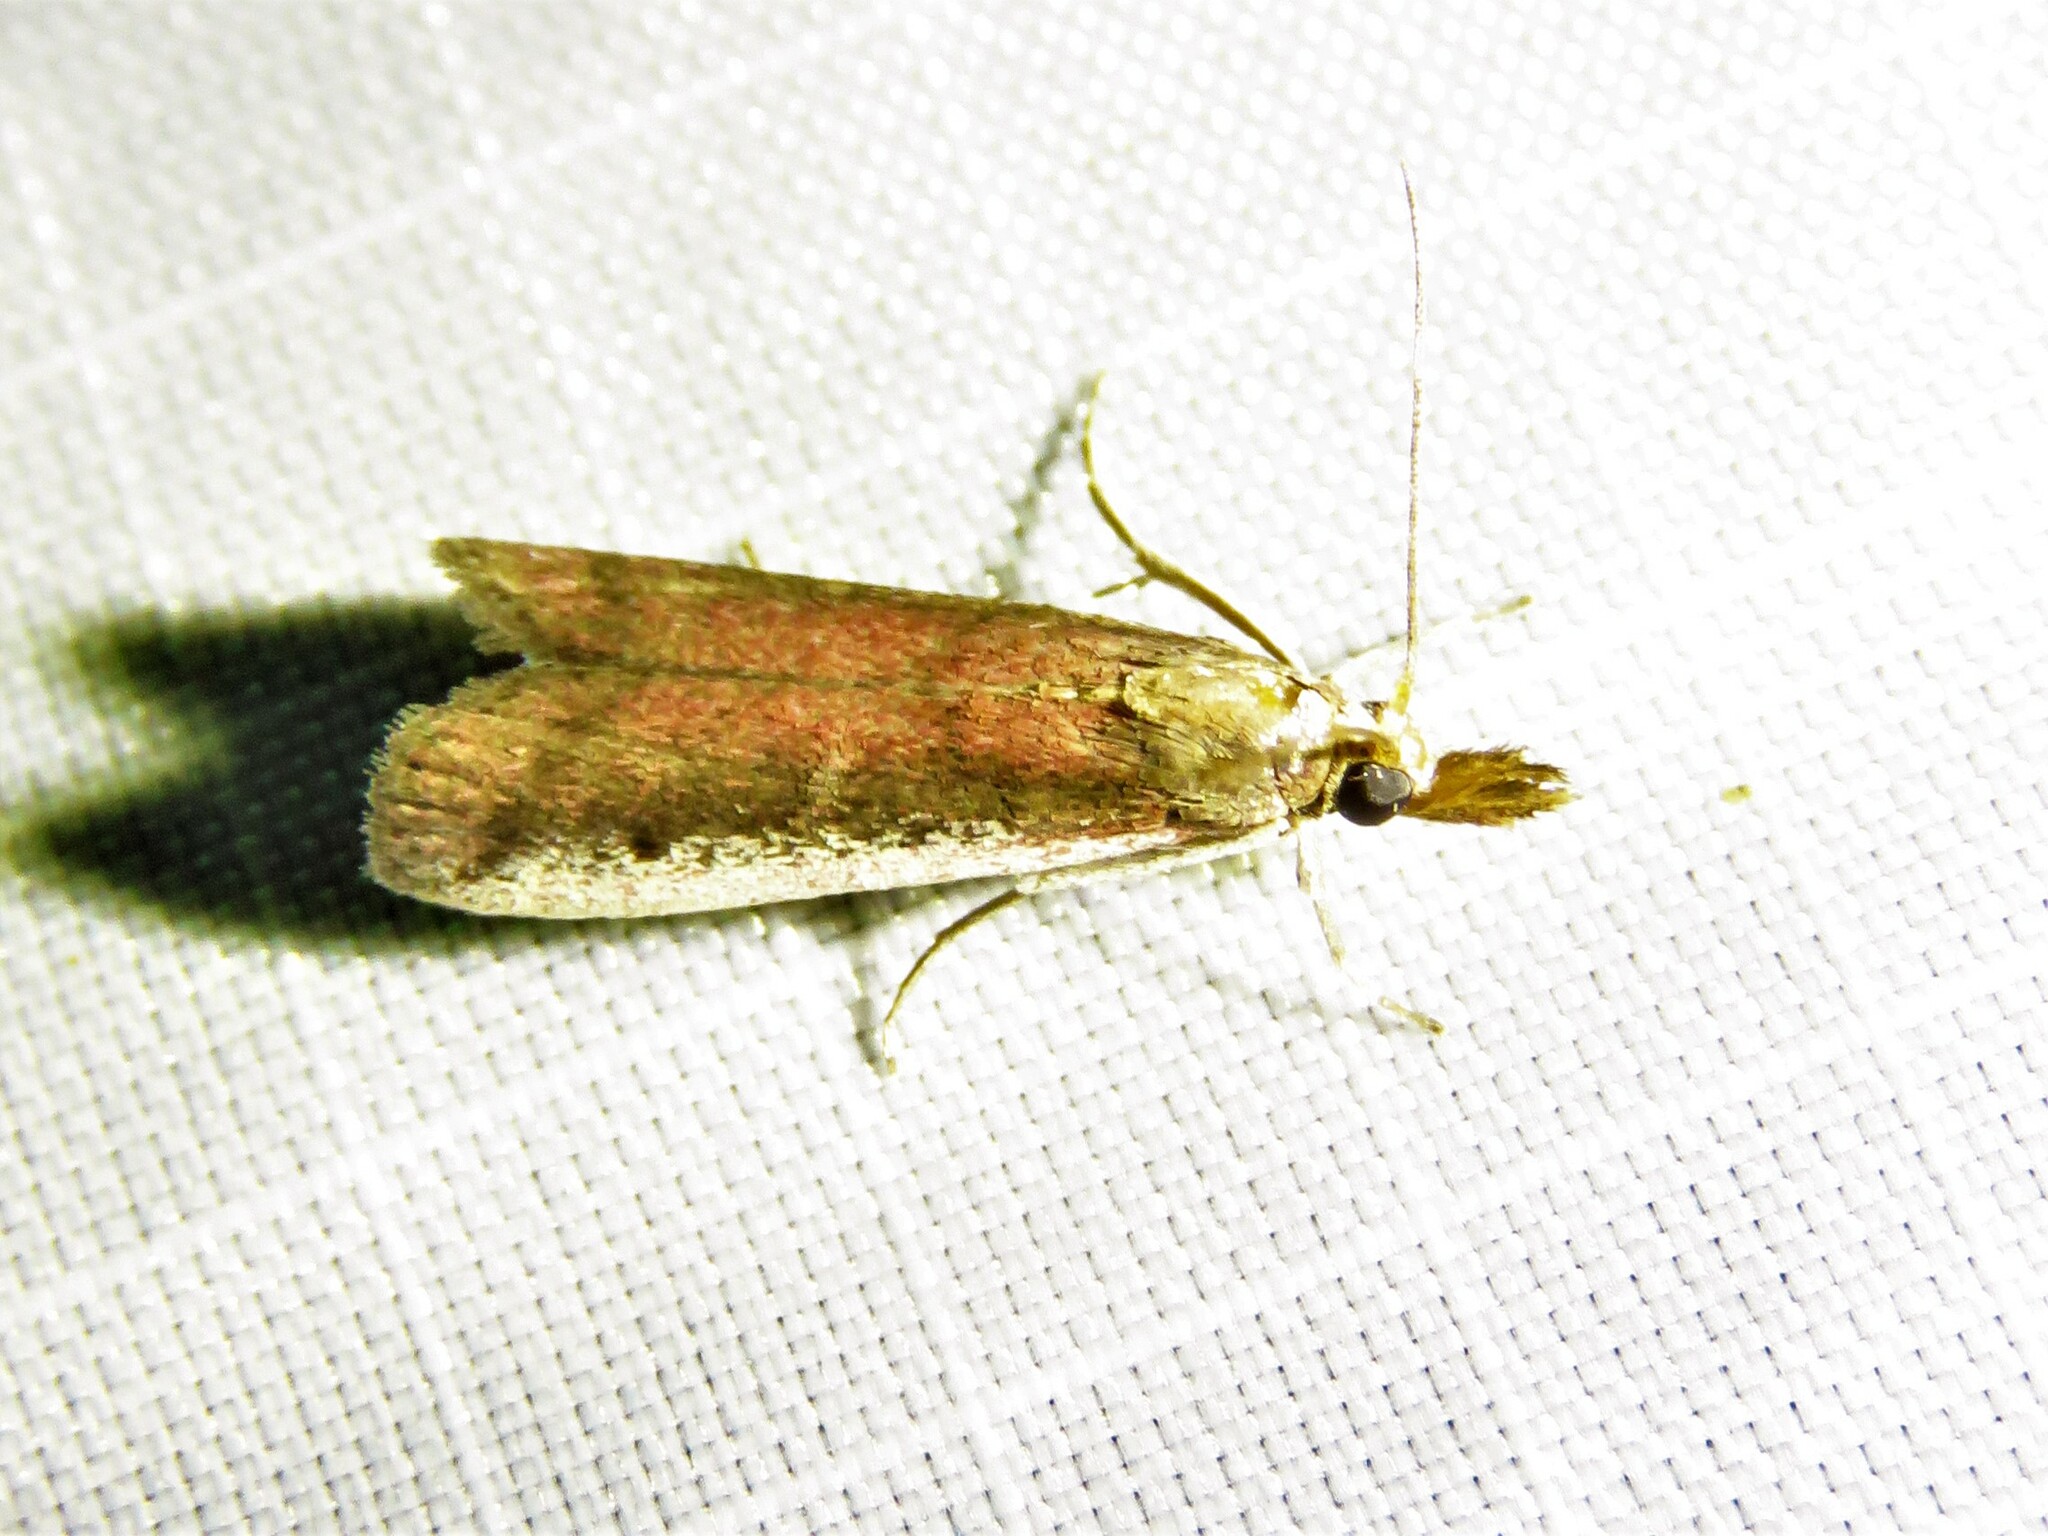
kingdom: Animalia
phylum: Arthropoda
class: Insecta
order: Lepidoptera
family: Pyralidae
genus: Atascosa
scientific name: Atascosa glareosella
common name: Rosy atascosa moth
